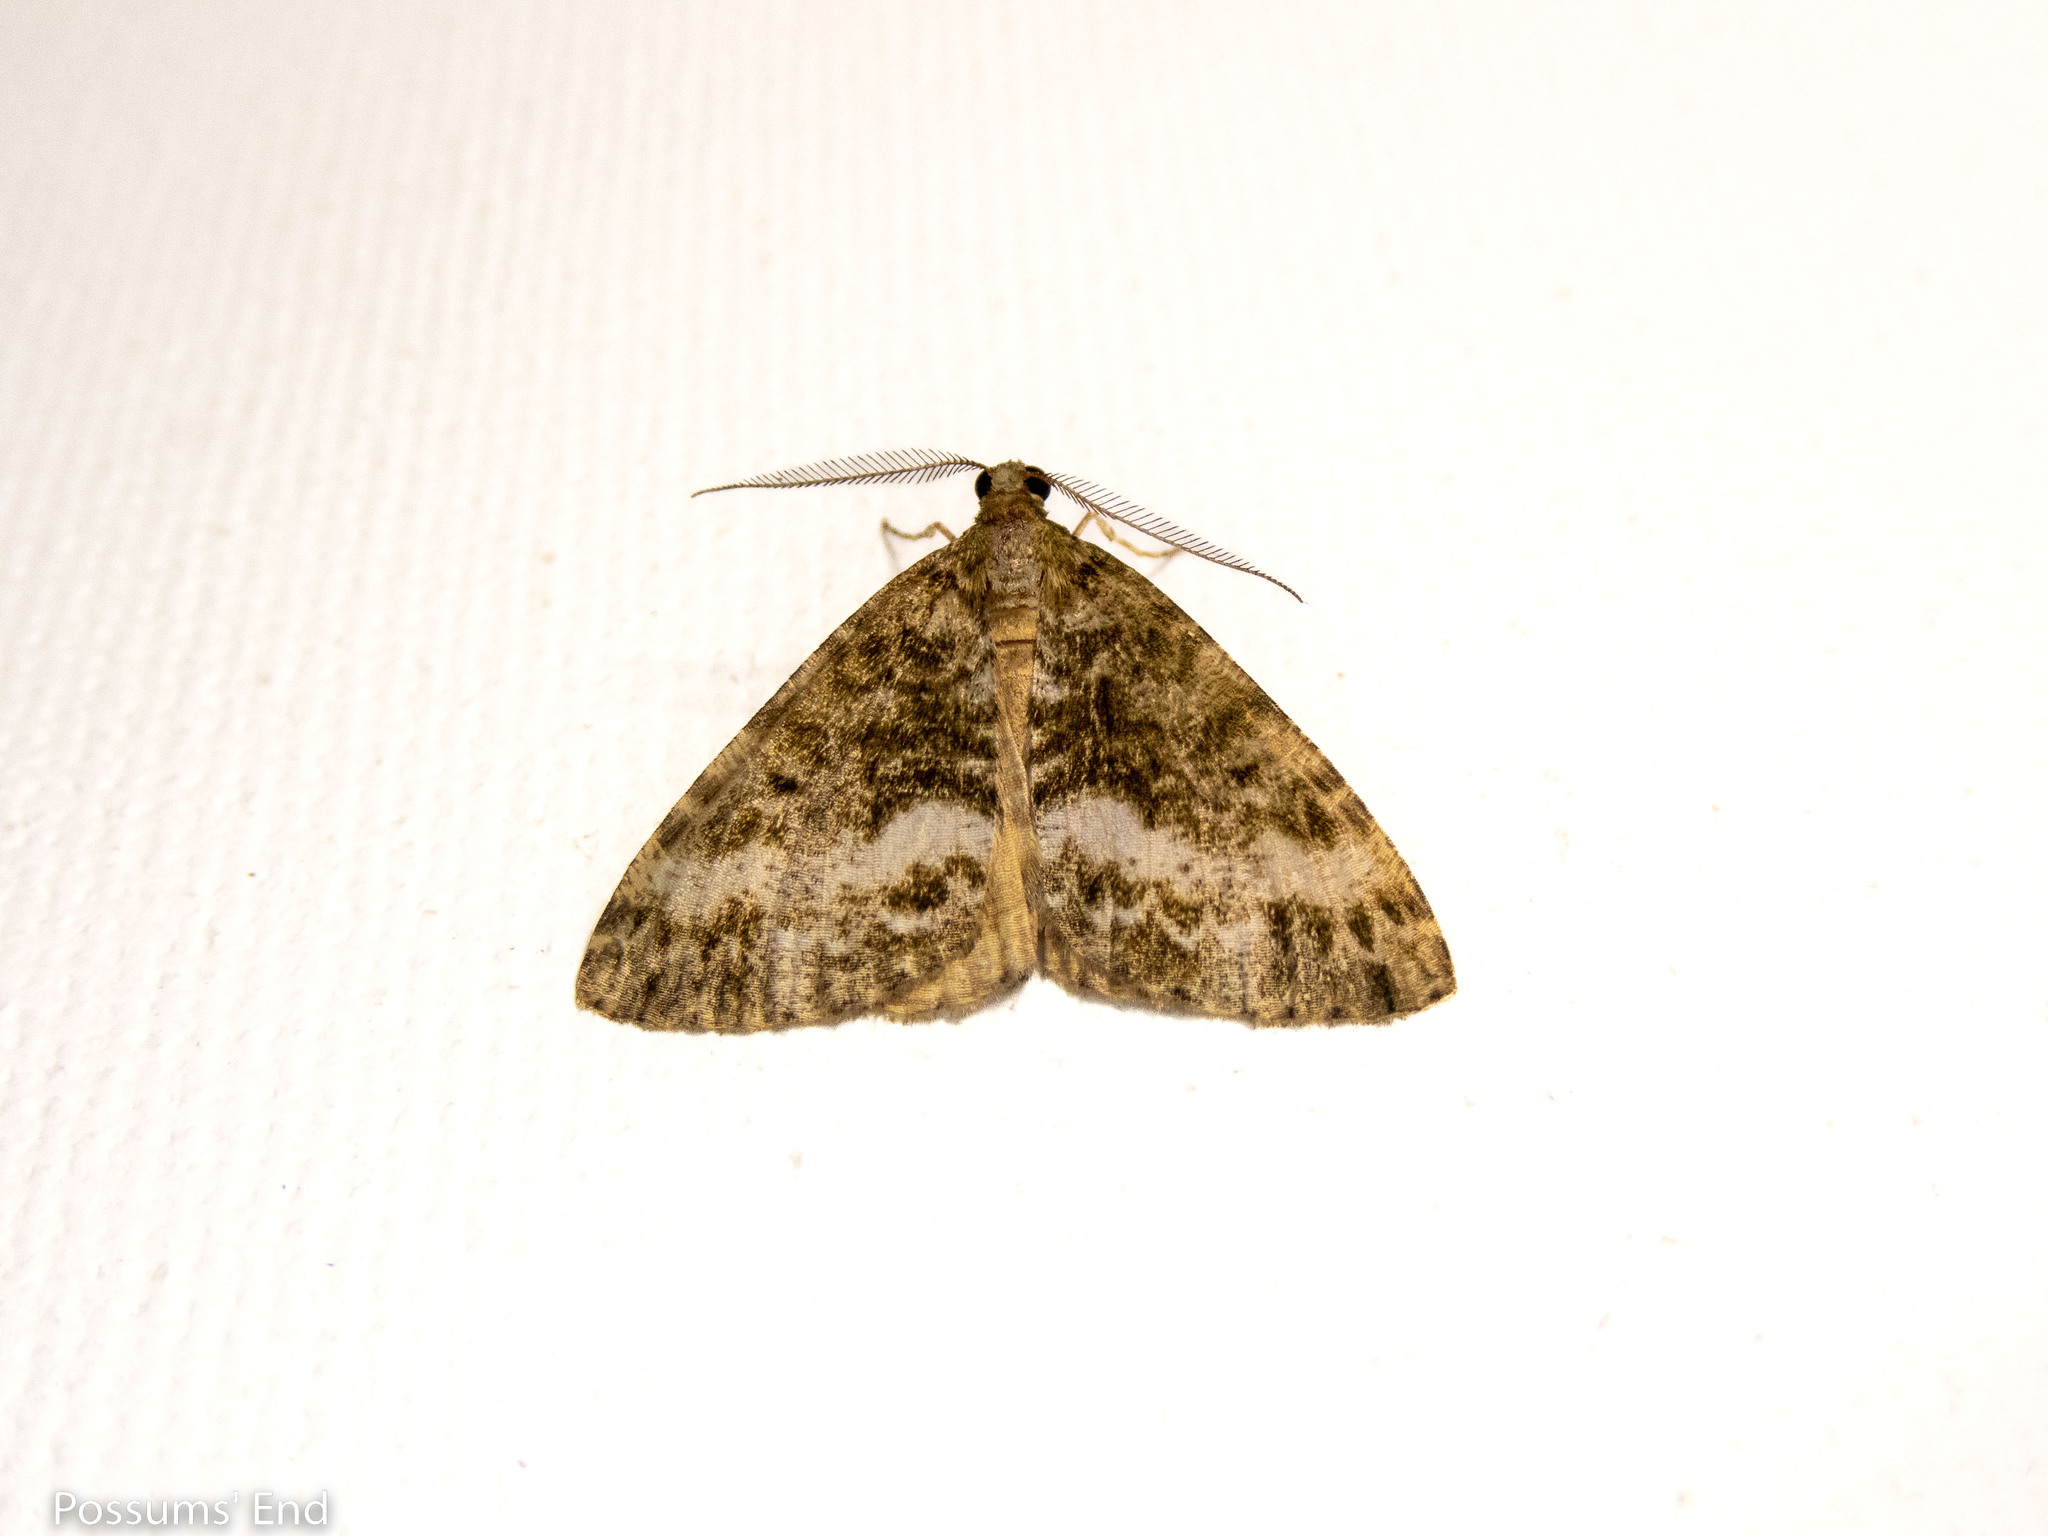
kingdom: Animalia
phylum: Arthropoda
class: Insecta
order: Lepidoptera
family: Geometridae
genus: Pseudocoremia
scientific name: Pseudocoremia lactiflua
